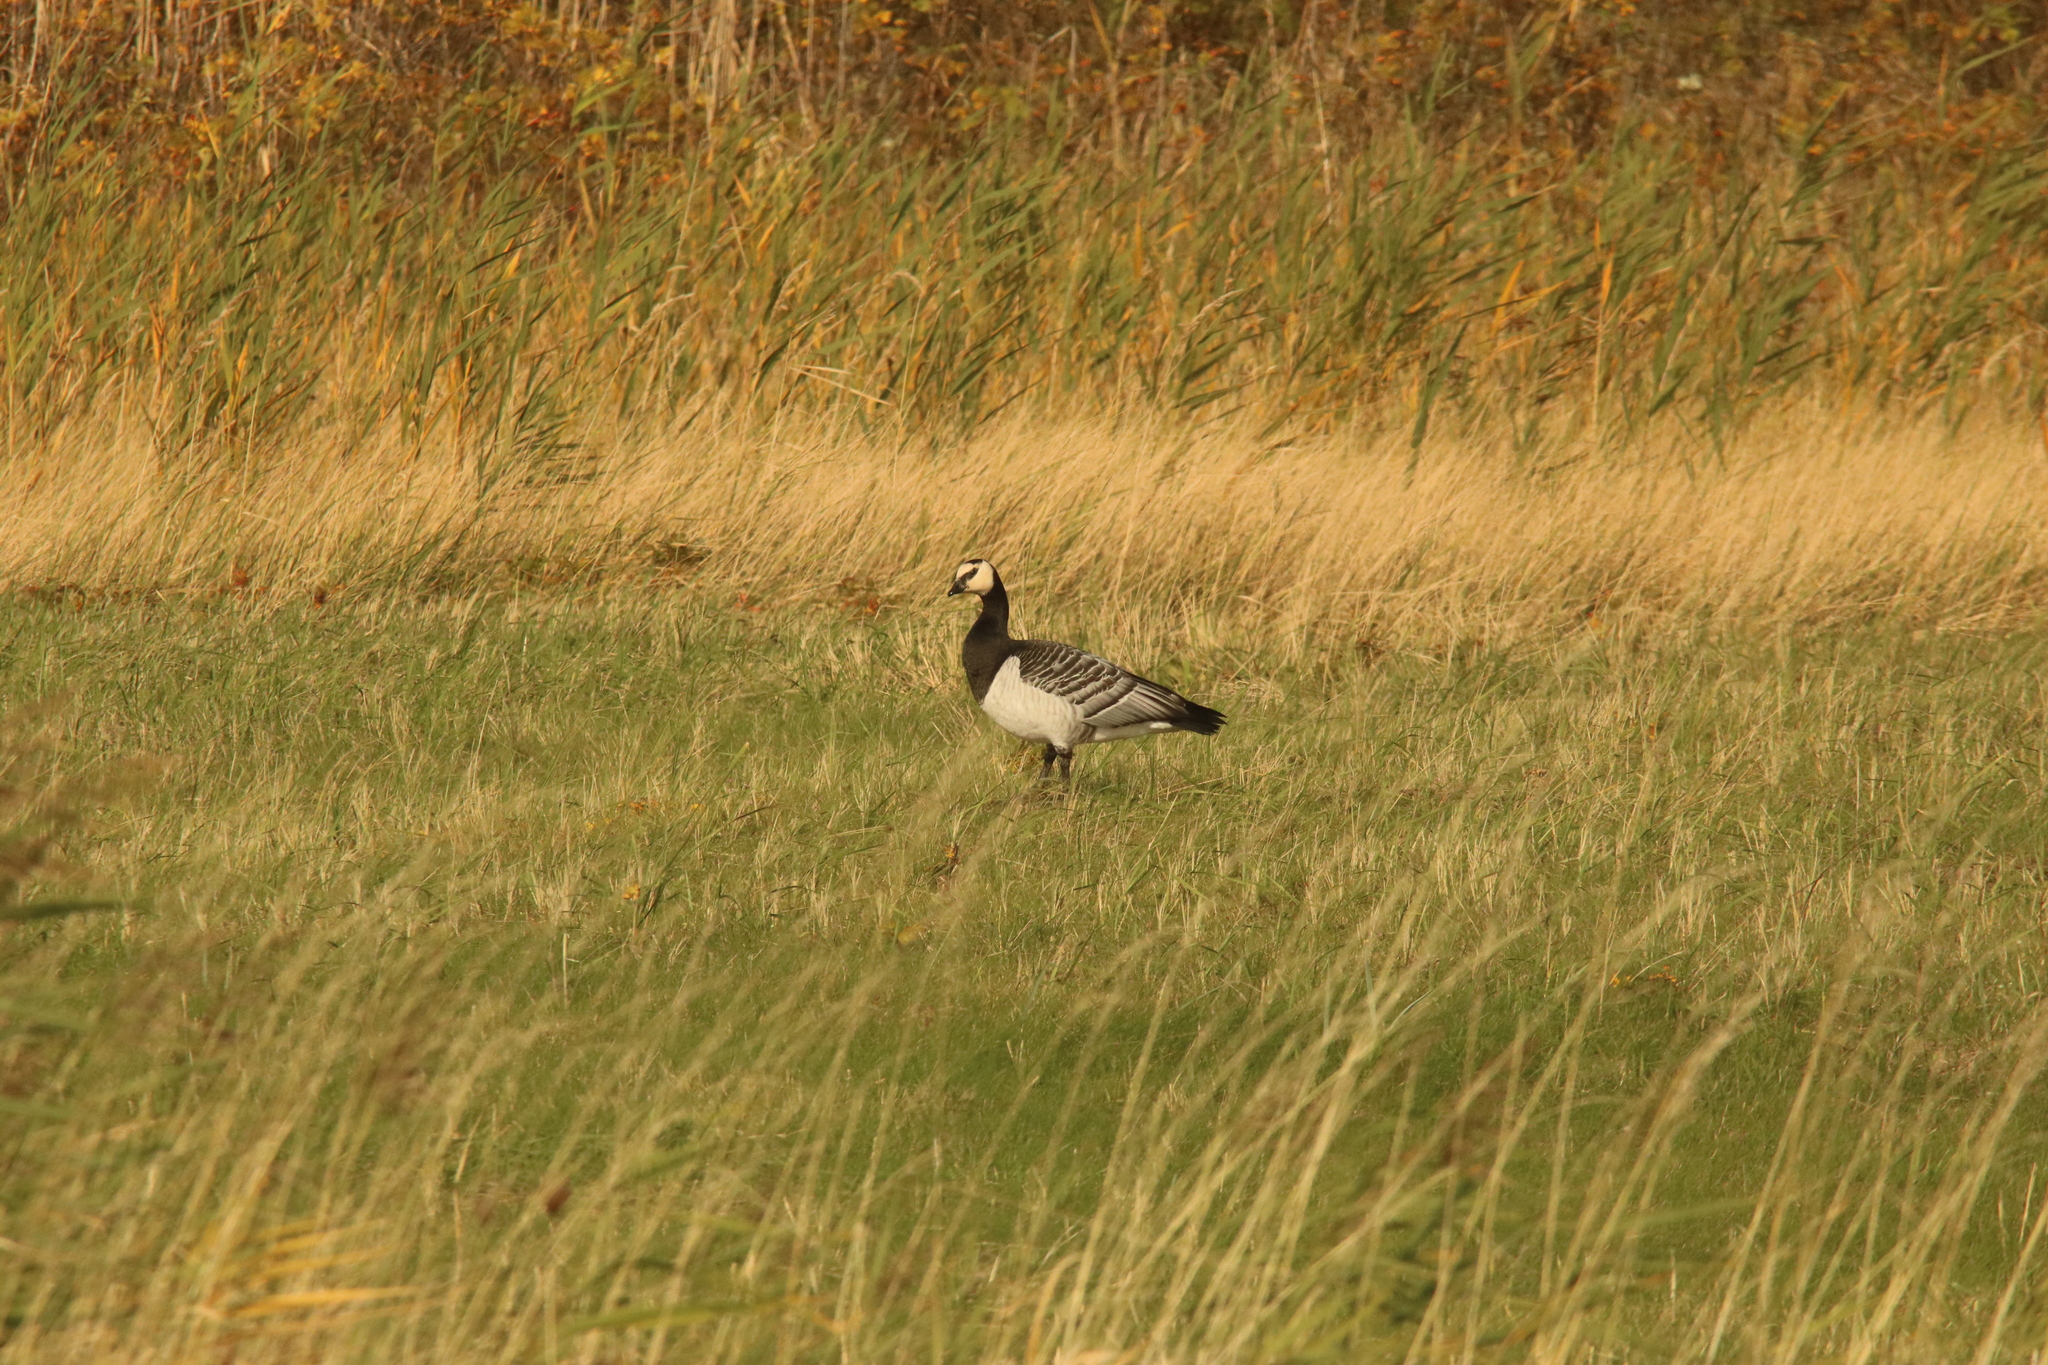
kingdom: Animalia
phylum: Chordata
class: Aves
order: Anseriformes
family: Anatidae
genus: Branta
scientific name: Branta leucopsis
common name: Barnacle goose
